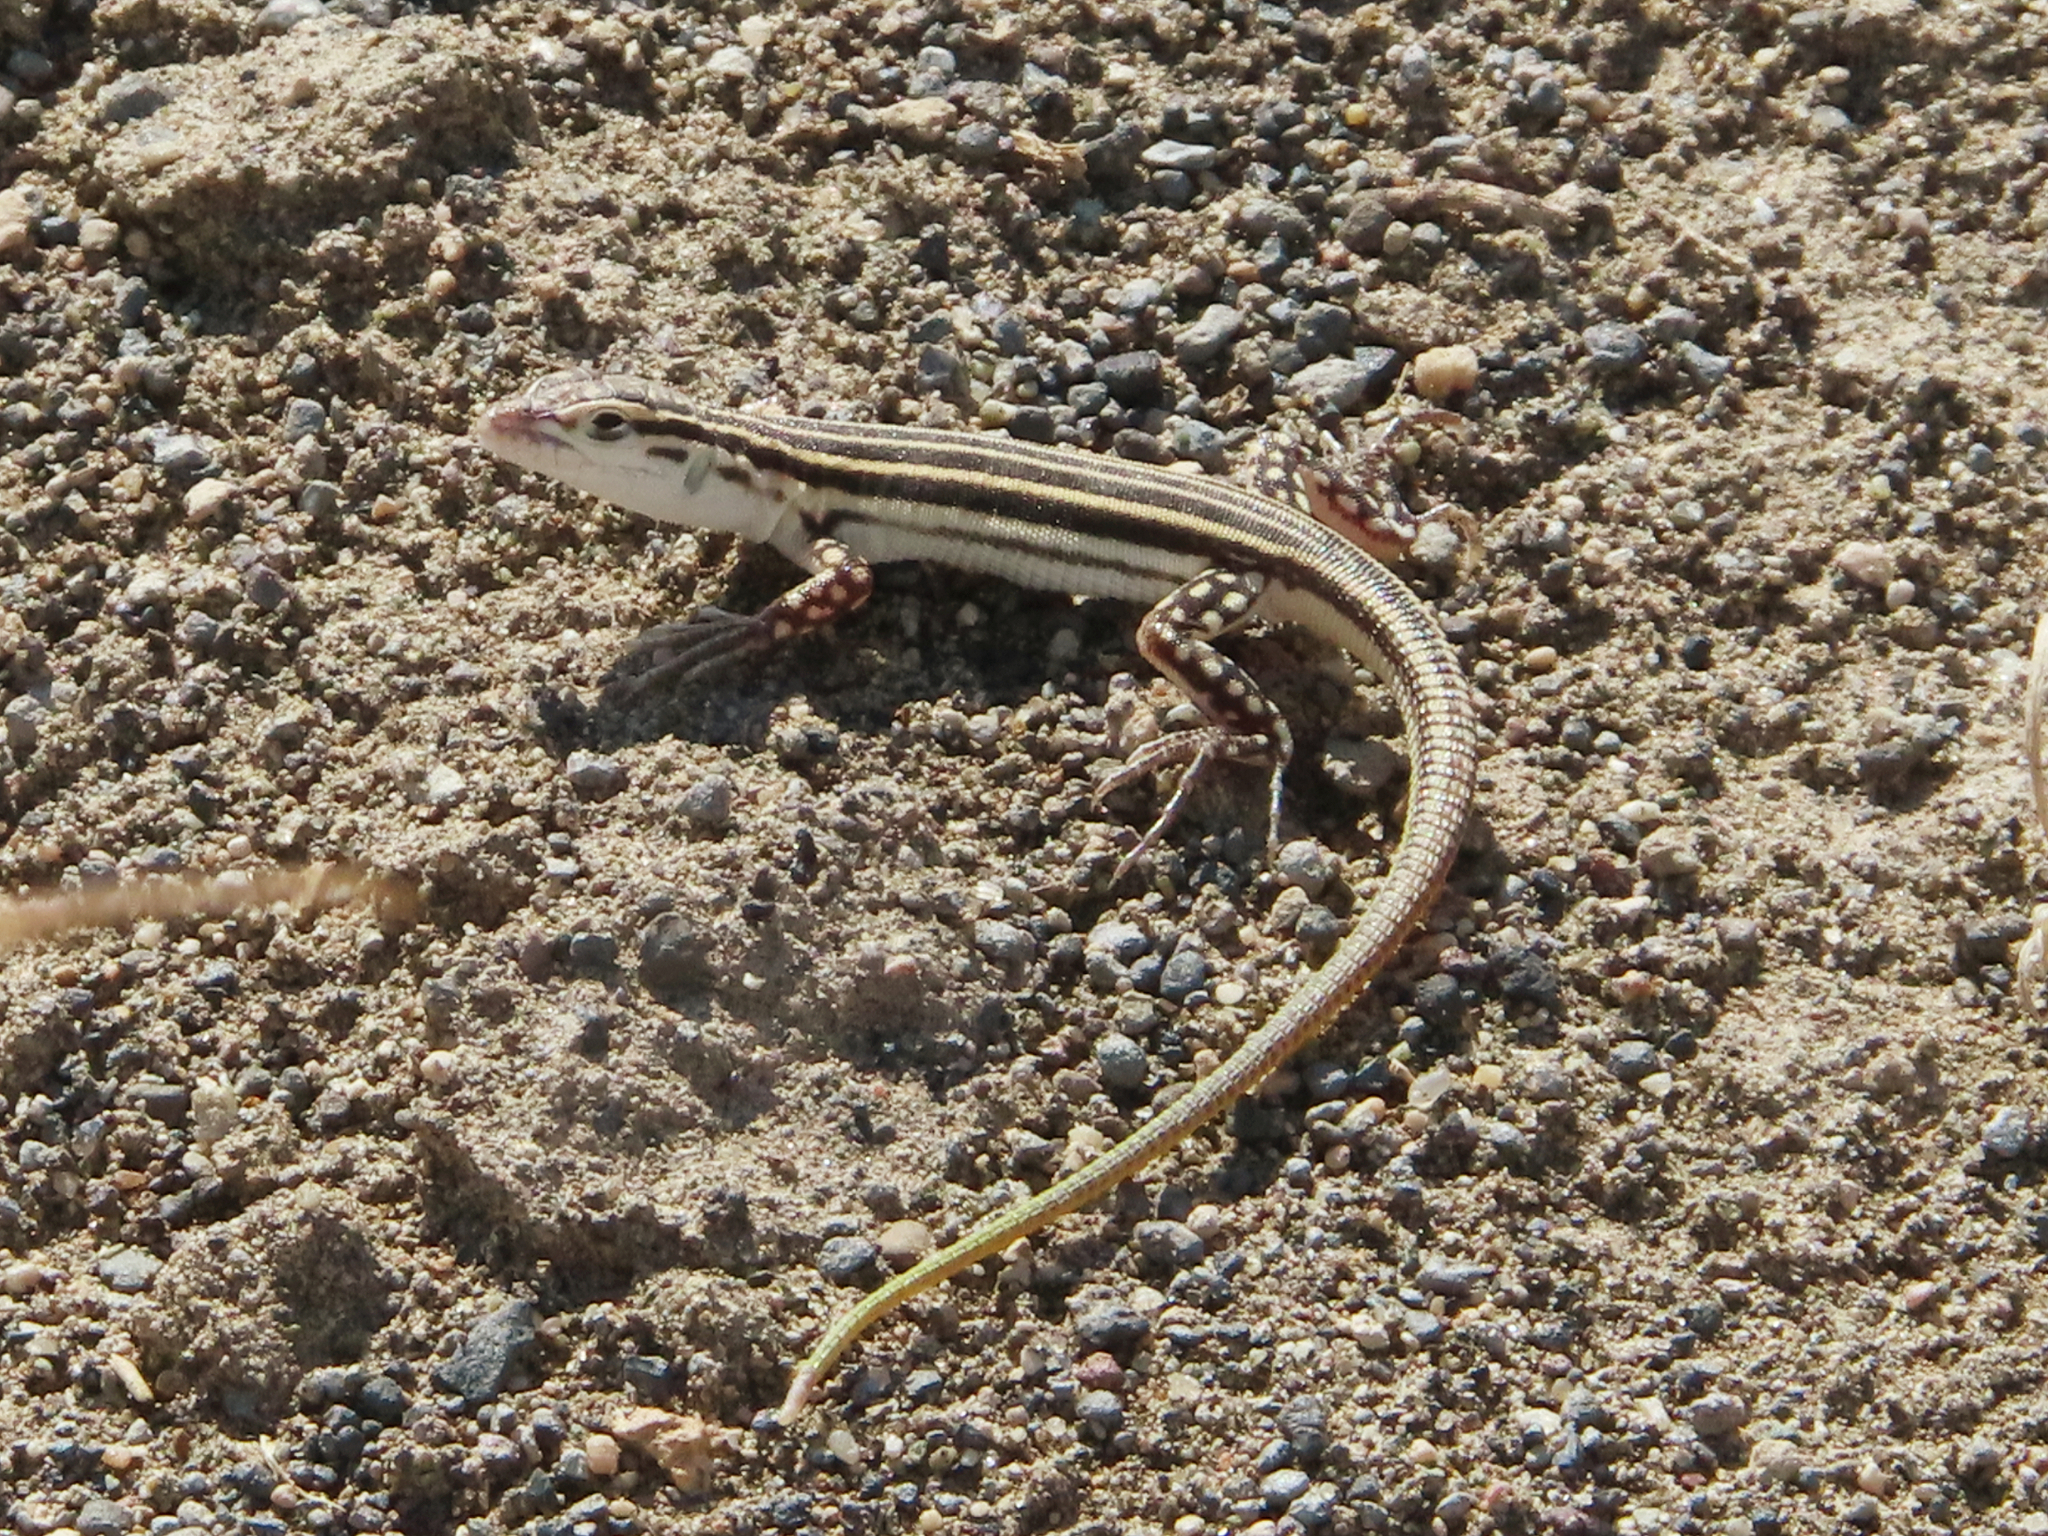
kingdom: Animalia
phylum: Chordata
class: Squamata
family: Lacertidae
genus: Eremias
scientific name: Eremias pleskei
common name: Pleske's racerunner
